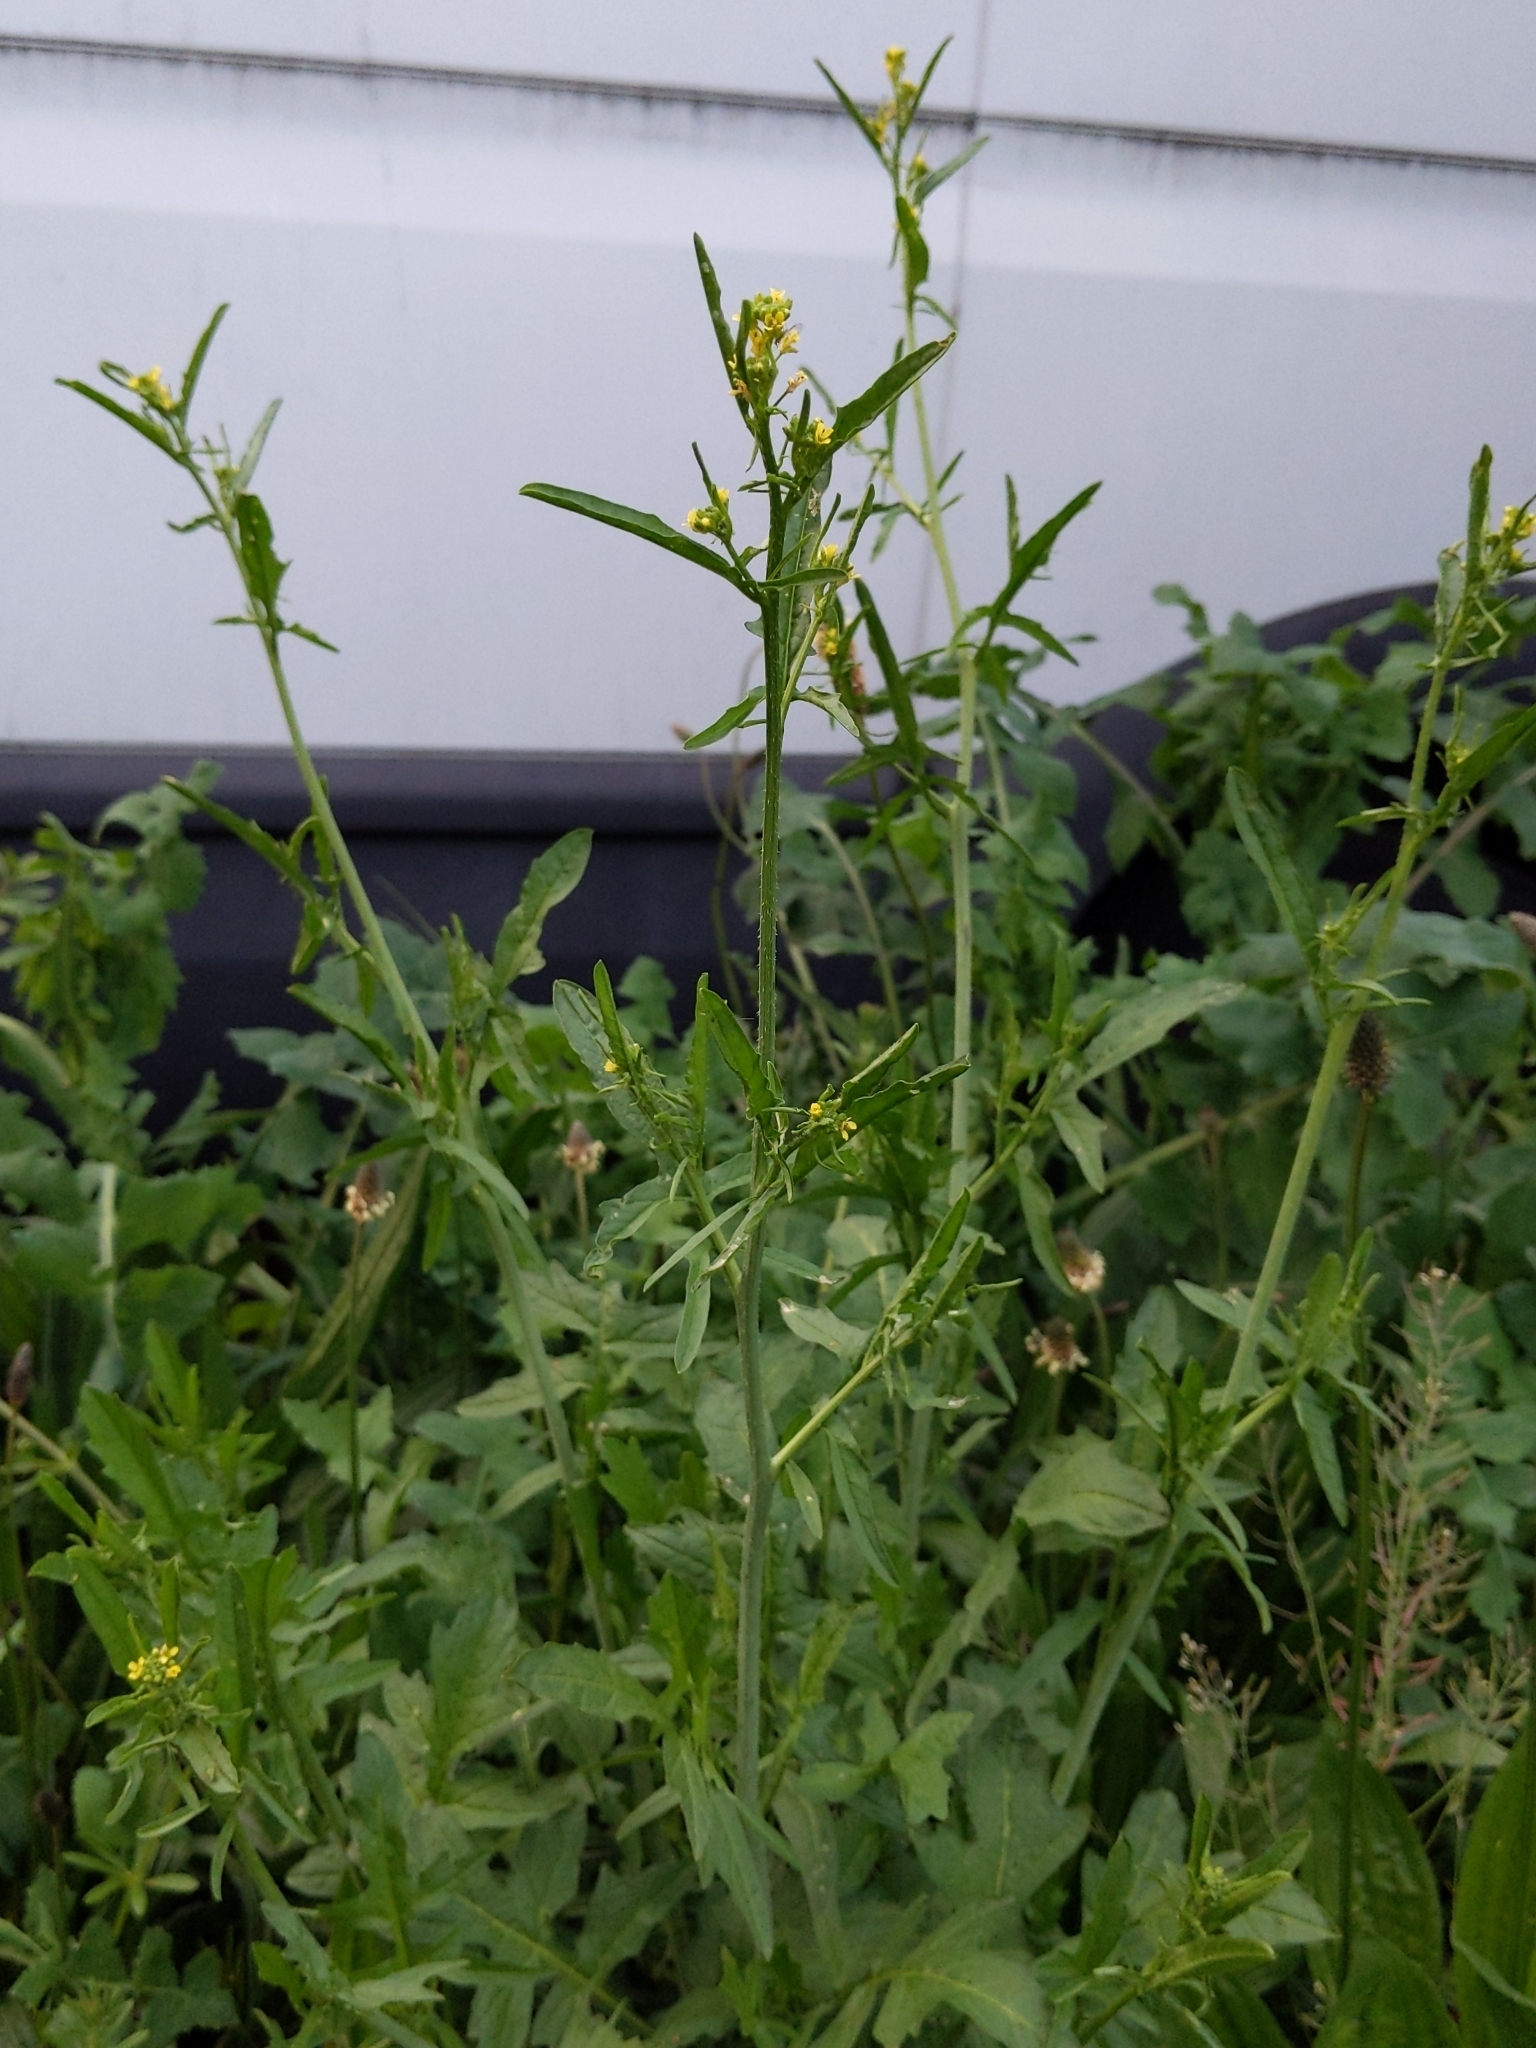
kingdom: Plantae
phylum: Tracheophyta
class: Magnoliopsida
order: Brassicales
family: Brassicaceae
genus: Sisymbrium
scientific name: Sisymbrium officinale
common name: Hedge mustard
